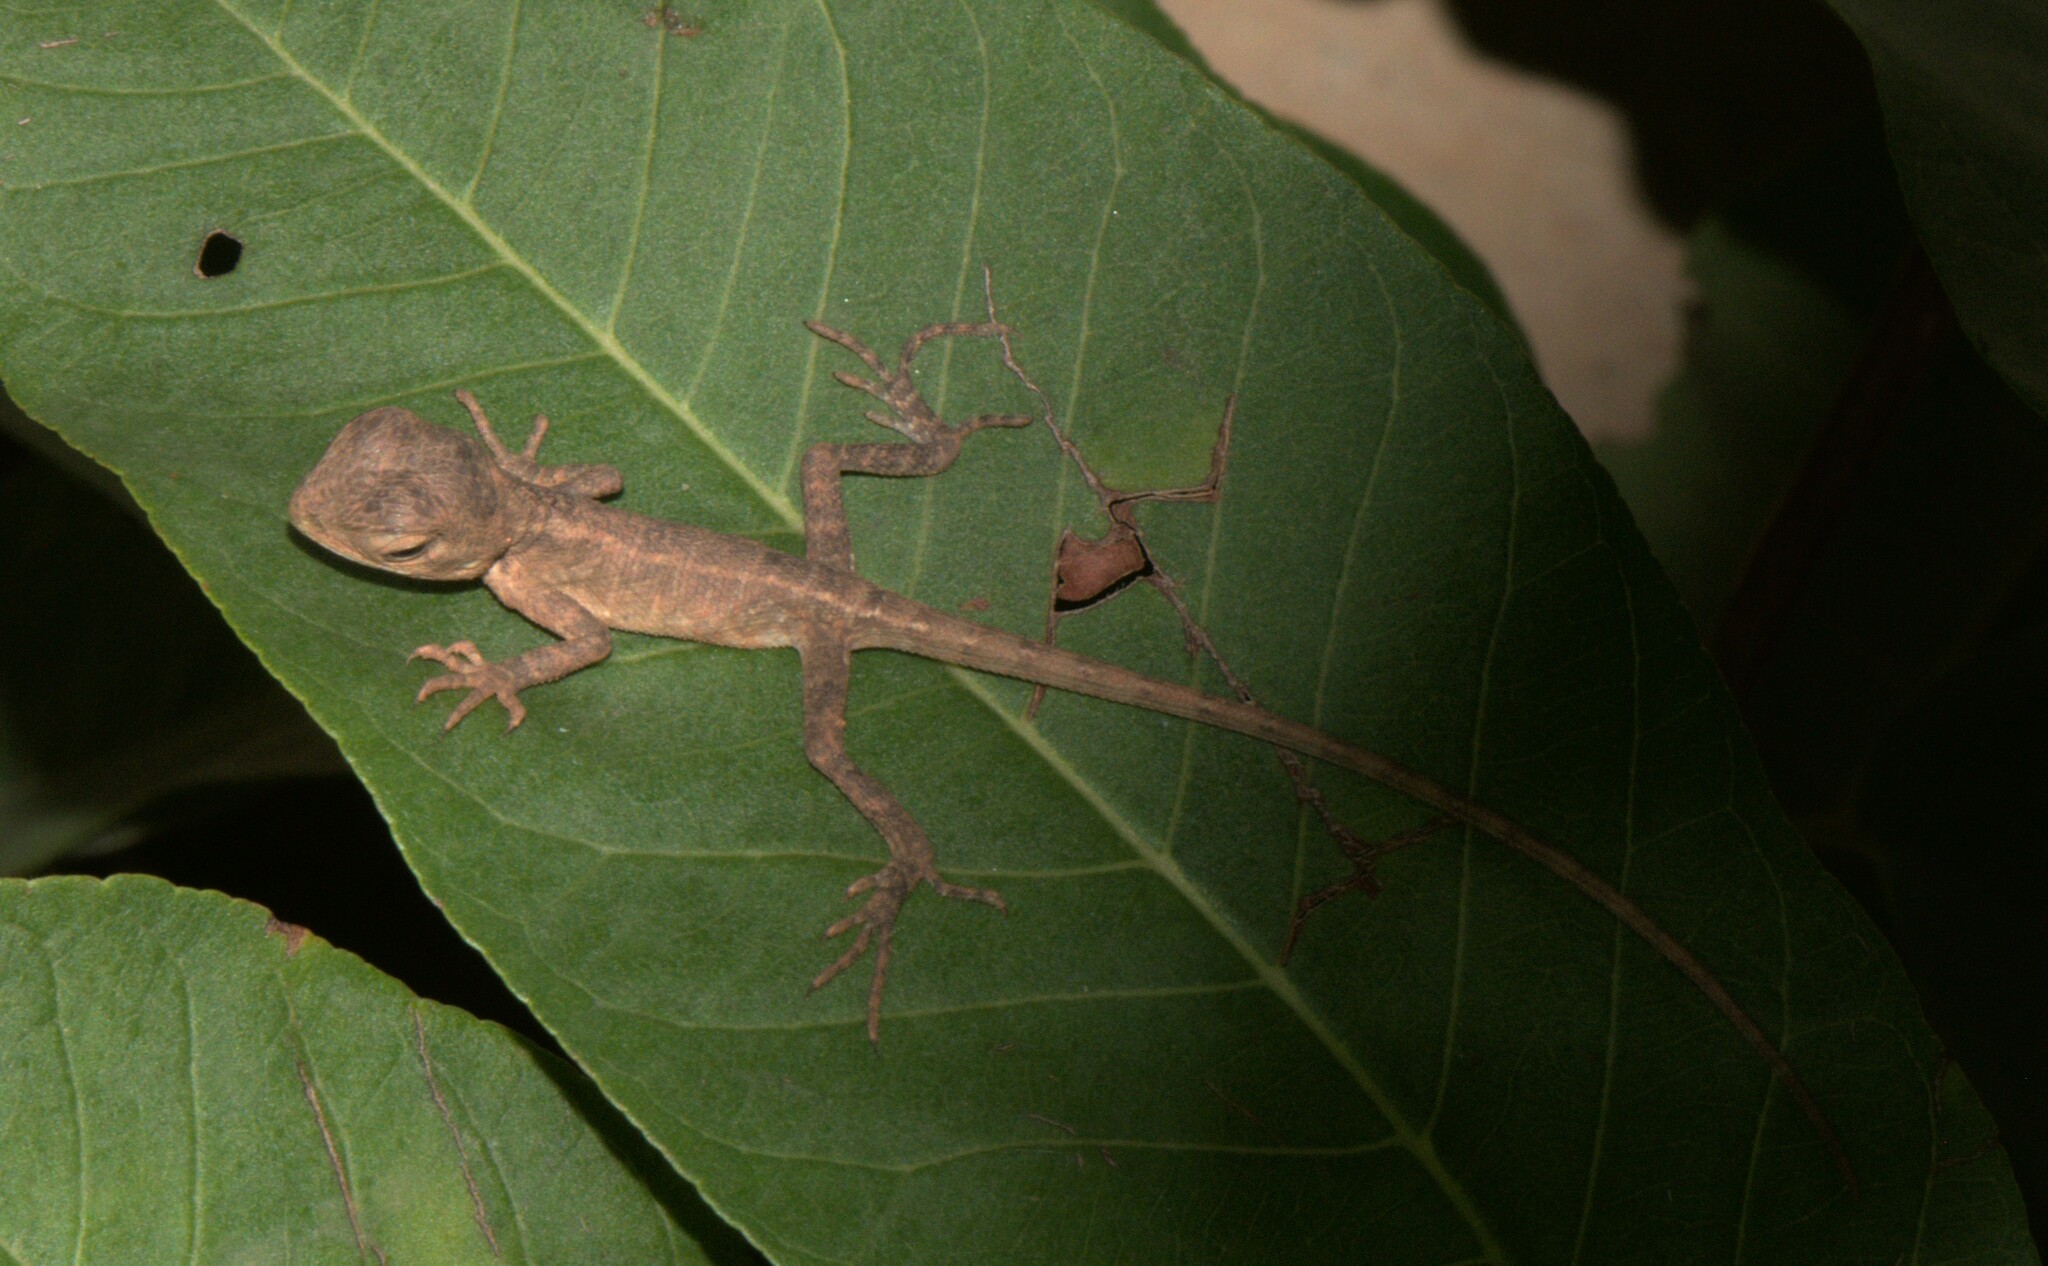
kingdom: Animalia
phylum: Chordata
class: Squamata
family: Agamidae
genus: Calotes
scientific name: Calotes versicolor
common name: Oriental garden lizard
